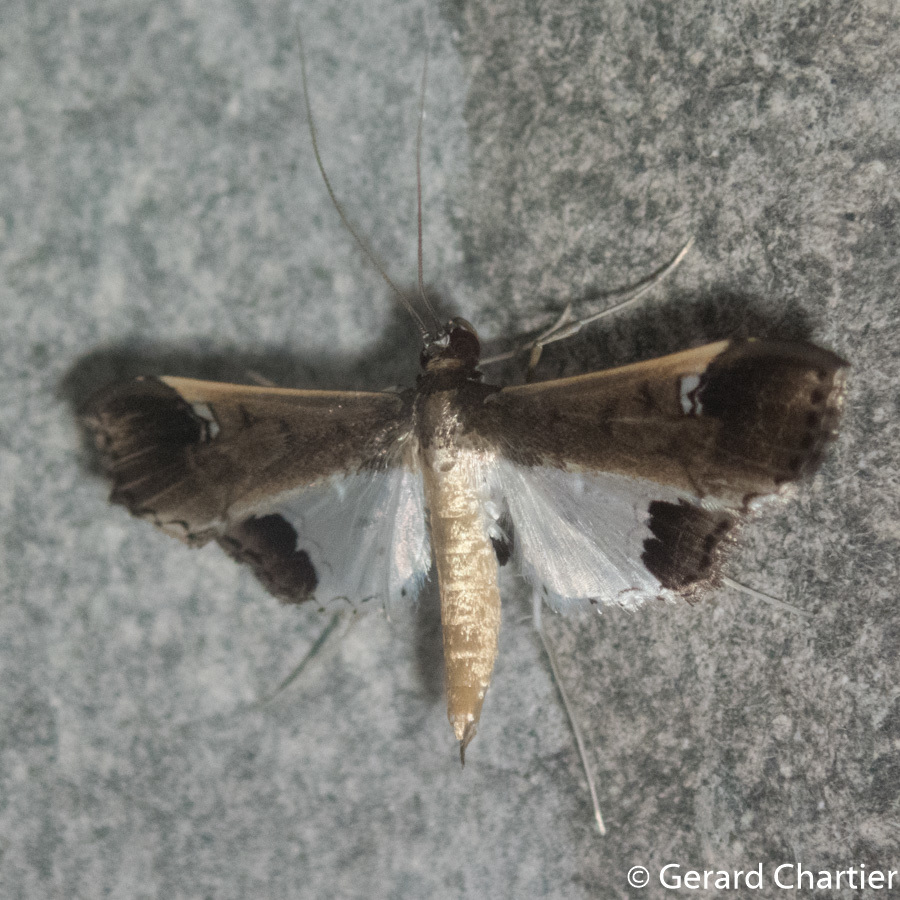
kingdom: Animalia
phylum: Arthropoda
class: Insecta
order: Lepidoptera
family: Crambidae
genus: Maruca
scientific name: Maruca amboinalis
